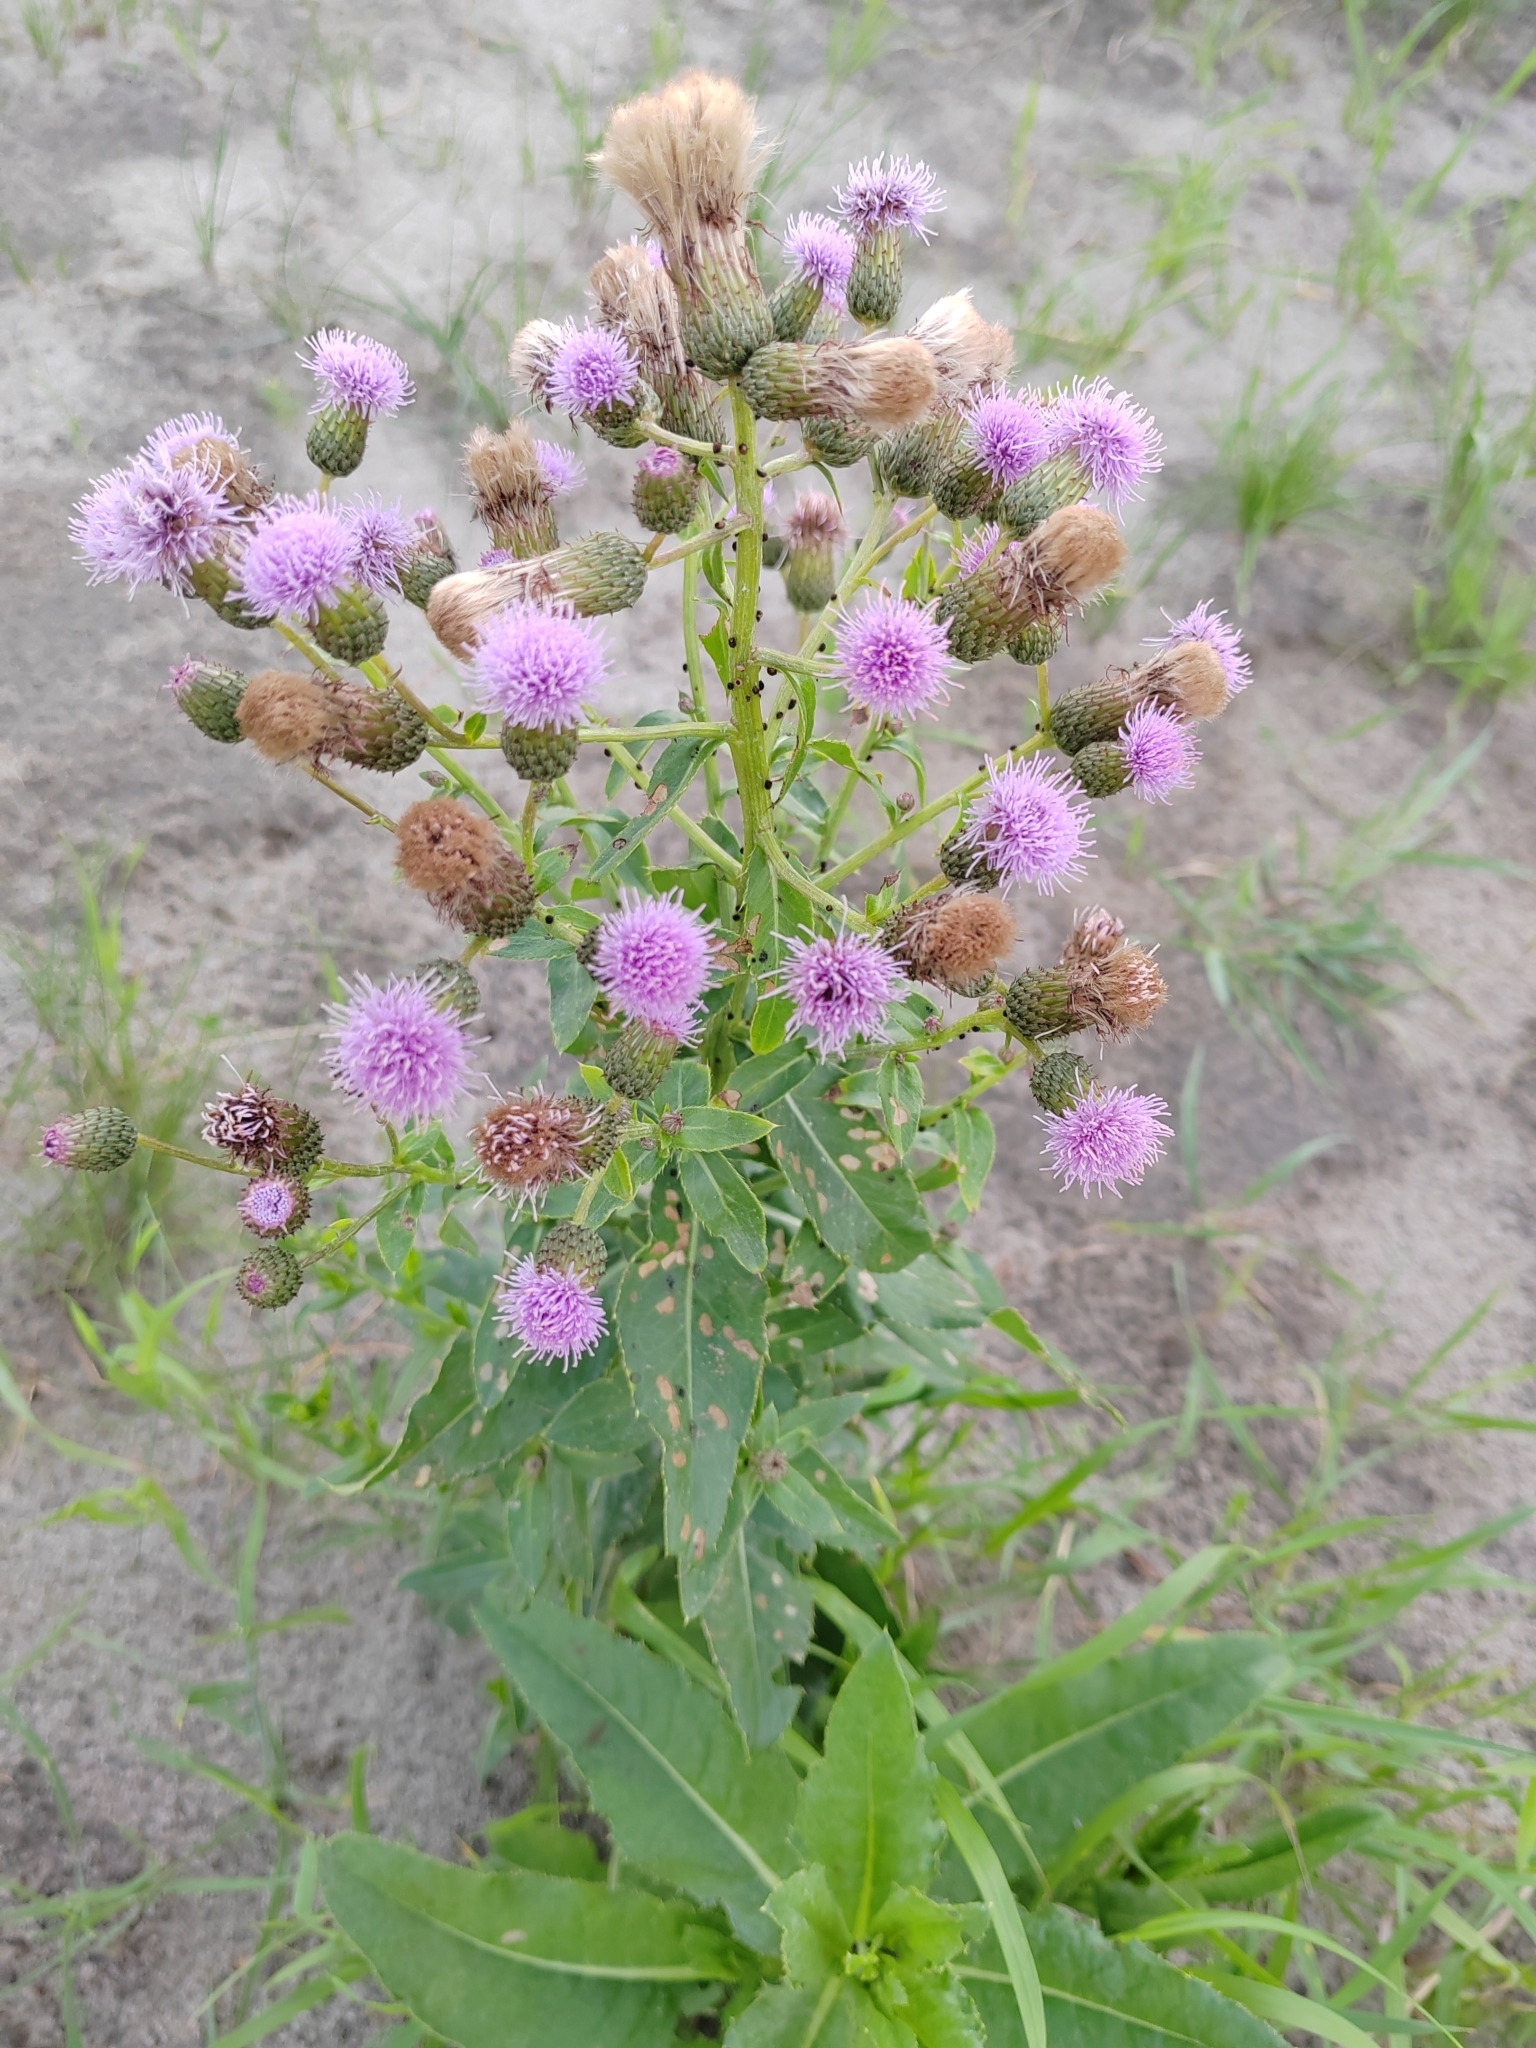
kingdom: Plantae
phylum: Tracheophyta
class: Magnoliopsida
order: Asterales
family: Asteraceae
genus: Cirsium
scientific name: Cirsium arvense
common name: Creeping thistle
